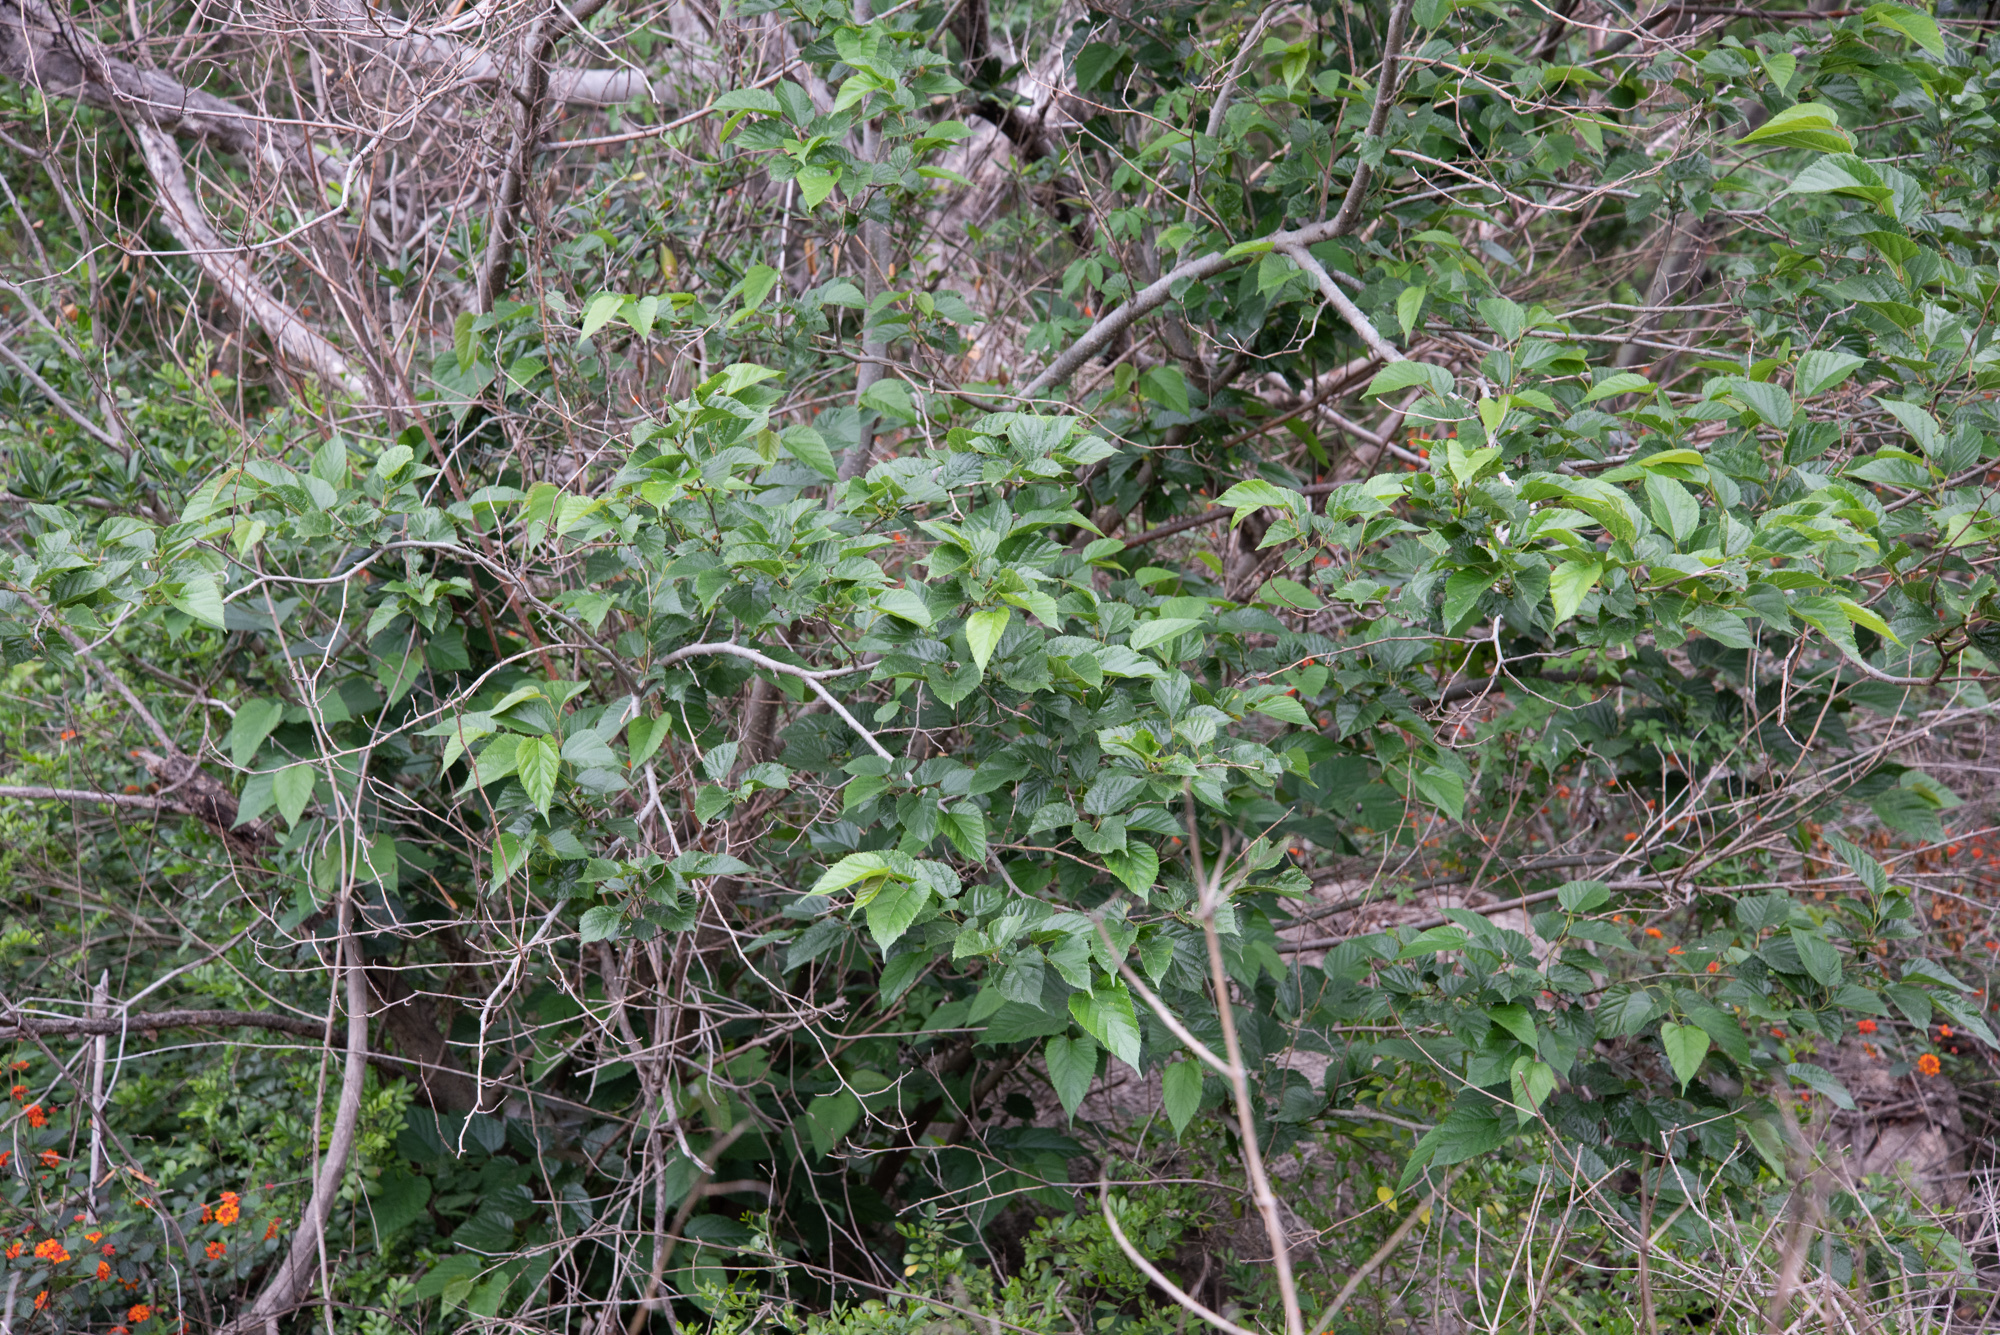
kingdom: Plantae
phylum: Tracheophyta
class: Magnoliopsida
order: Rosales
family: Moraceae
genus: Morus
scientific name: Morus indica
